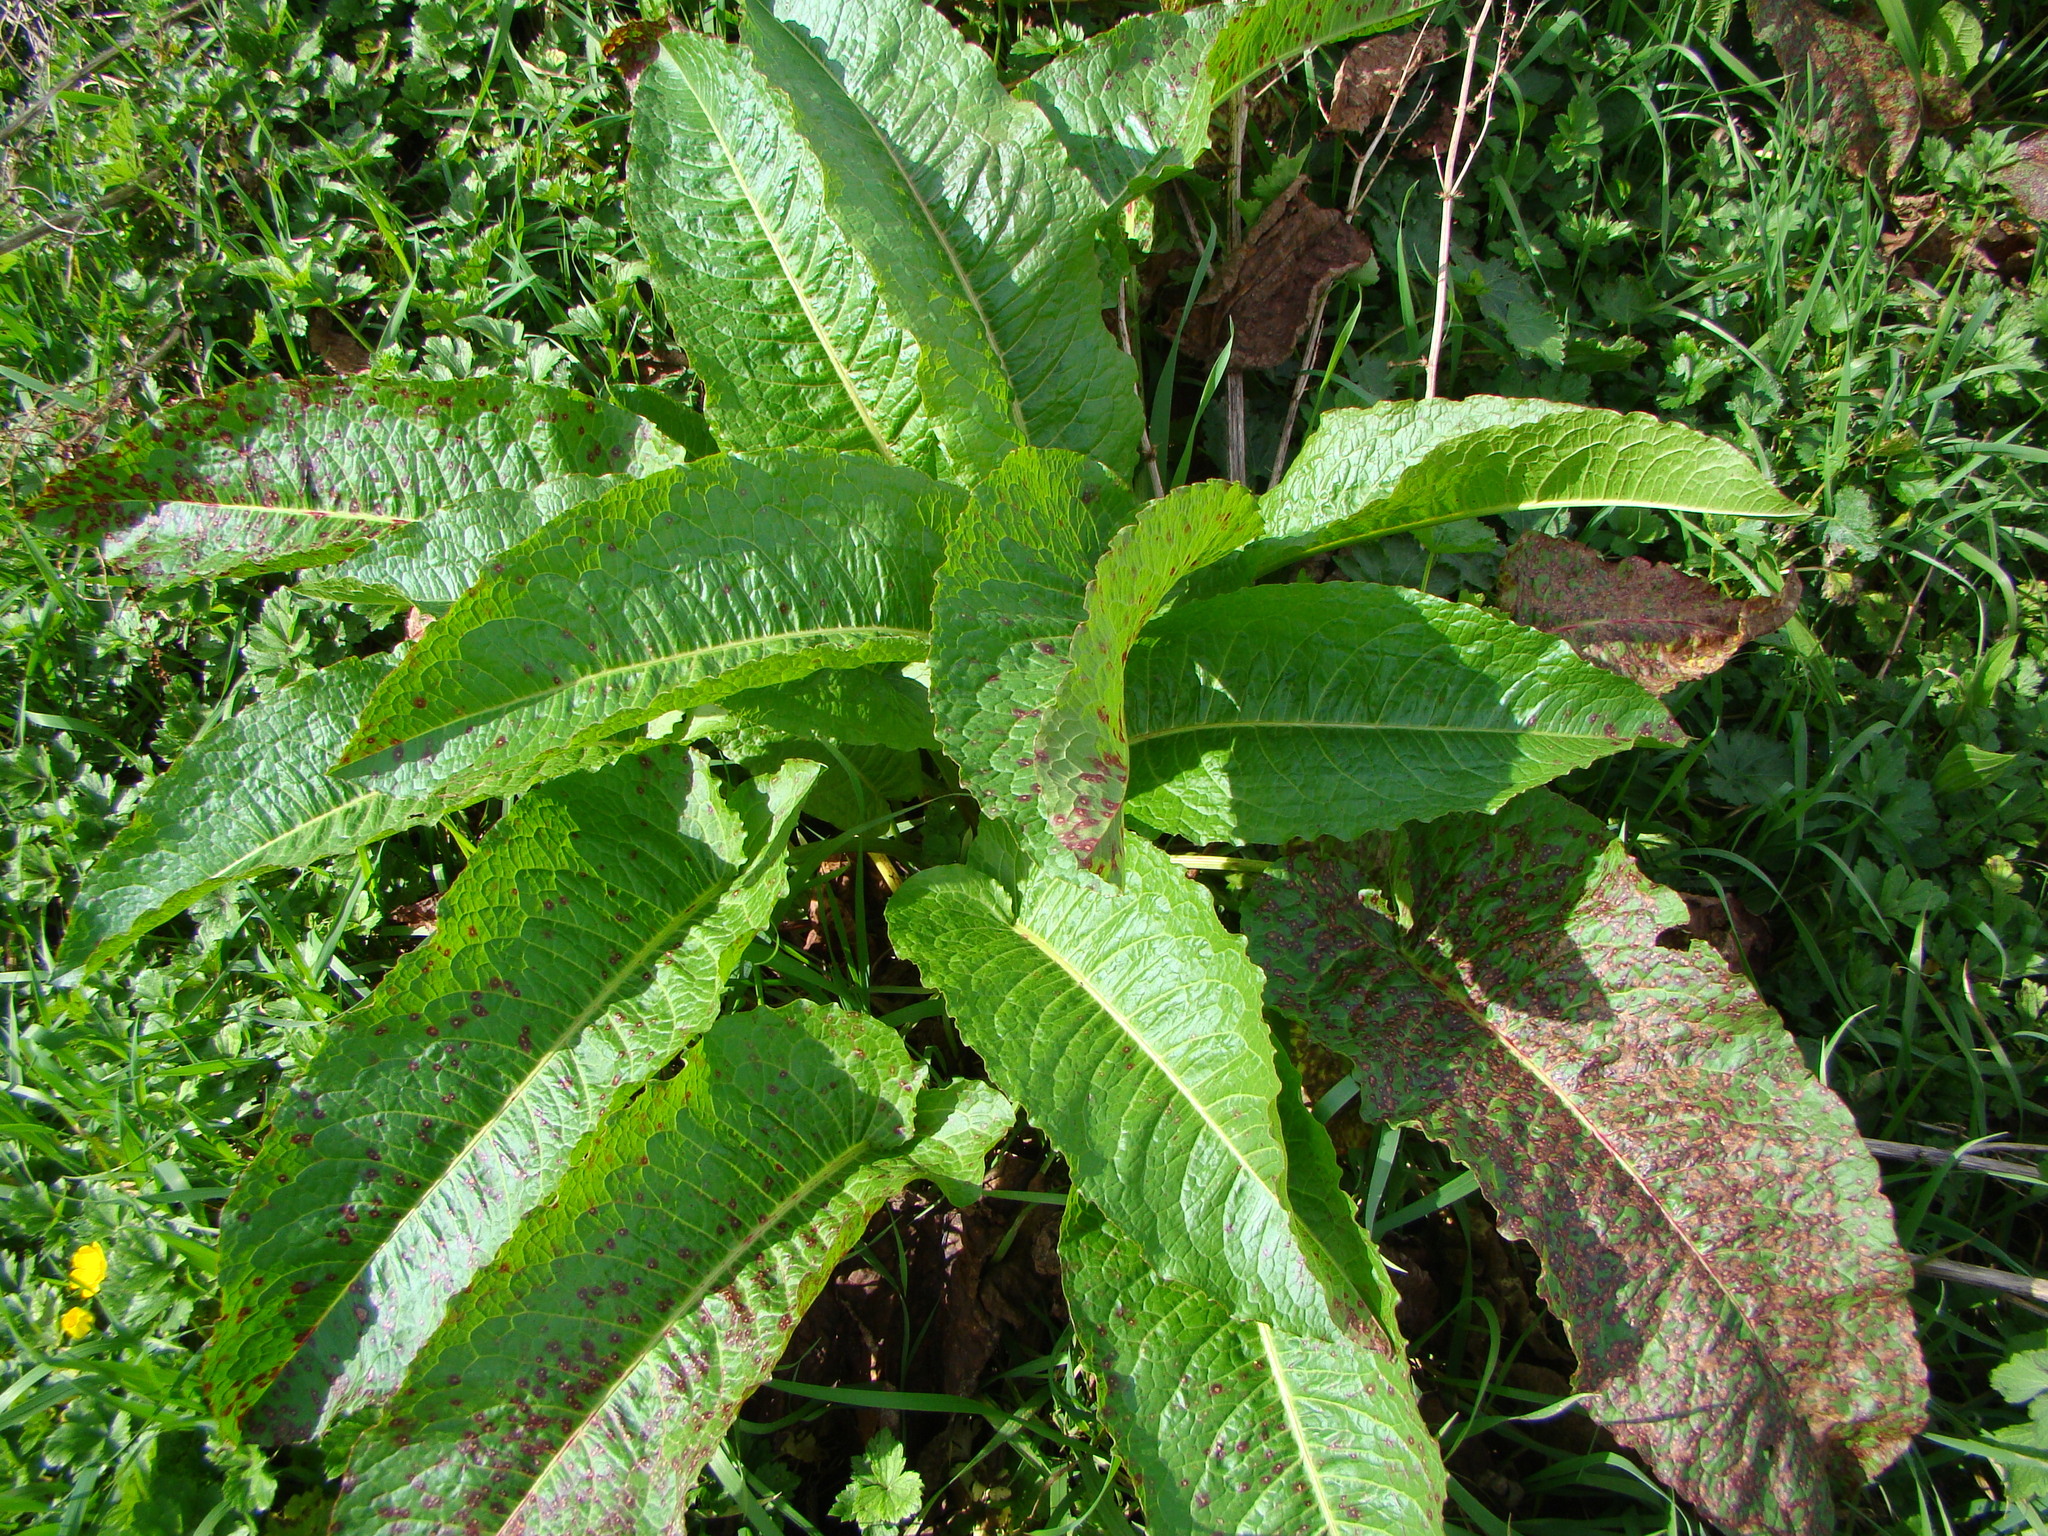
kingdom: Plantae
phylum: Tracheophyta
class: Magnoliopsida
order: Caryophyllales
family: Polygonaceae
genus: Rumex
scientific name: Rumex obtusifolius
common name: Bitter dock
